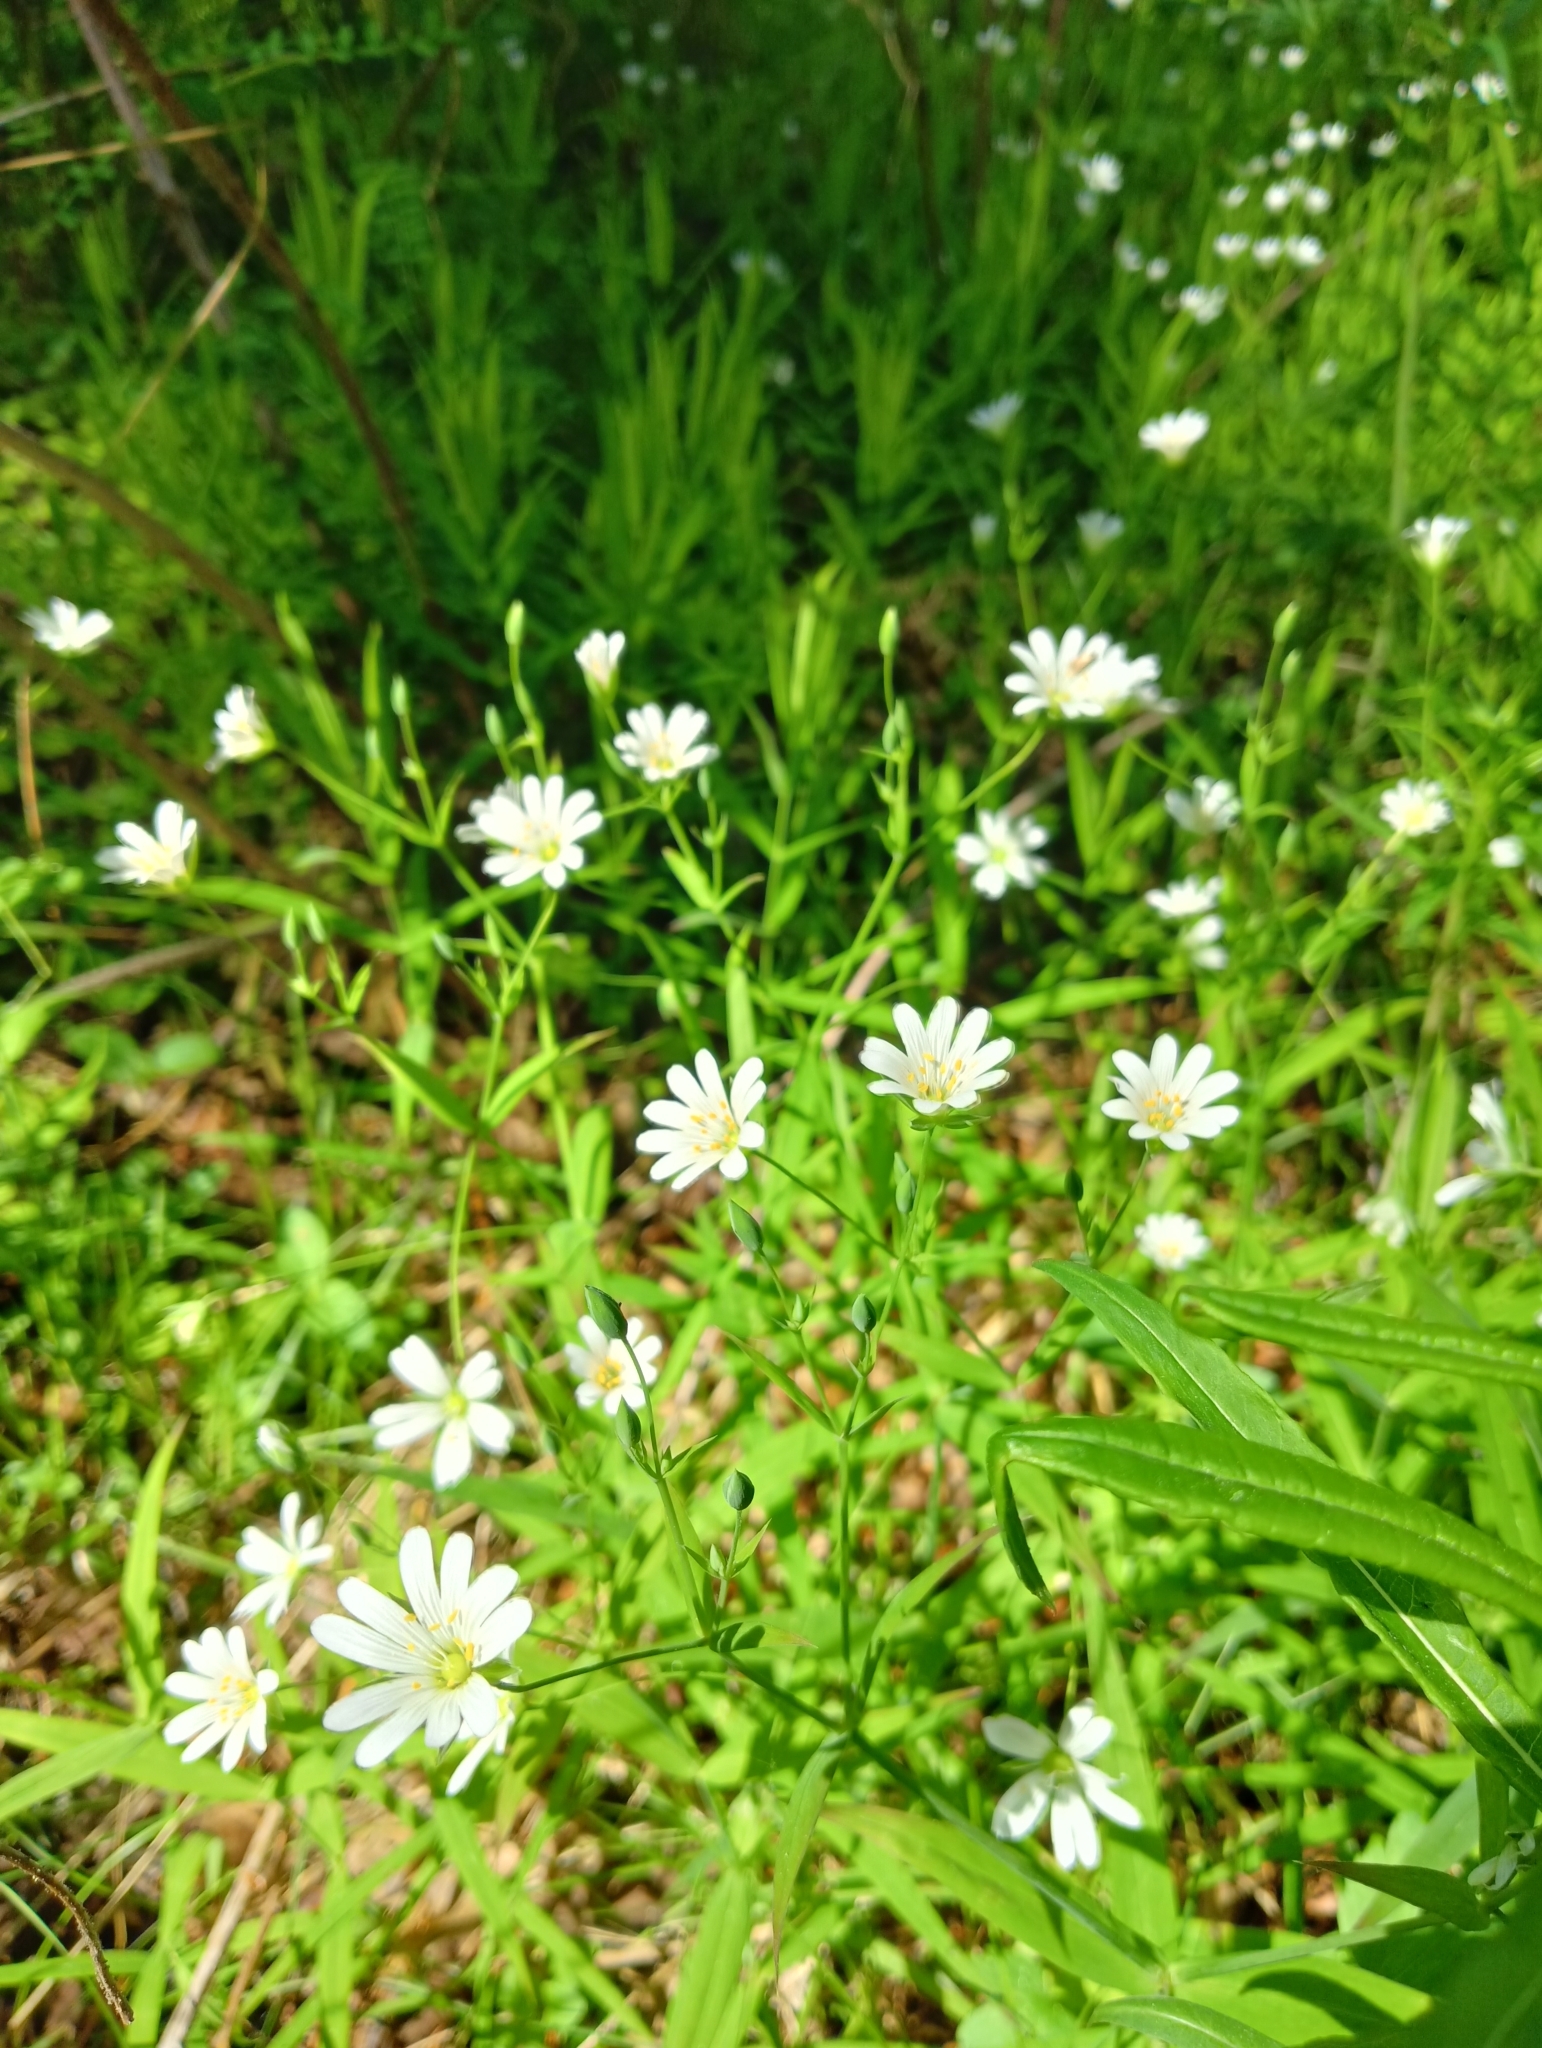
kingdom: Plantae
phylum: Tracheophyta
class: Magnoliopsida
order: Caryophyllales
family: Caryophyllaceae
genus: Rabelera
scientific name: Rabelera holostea
